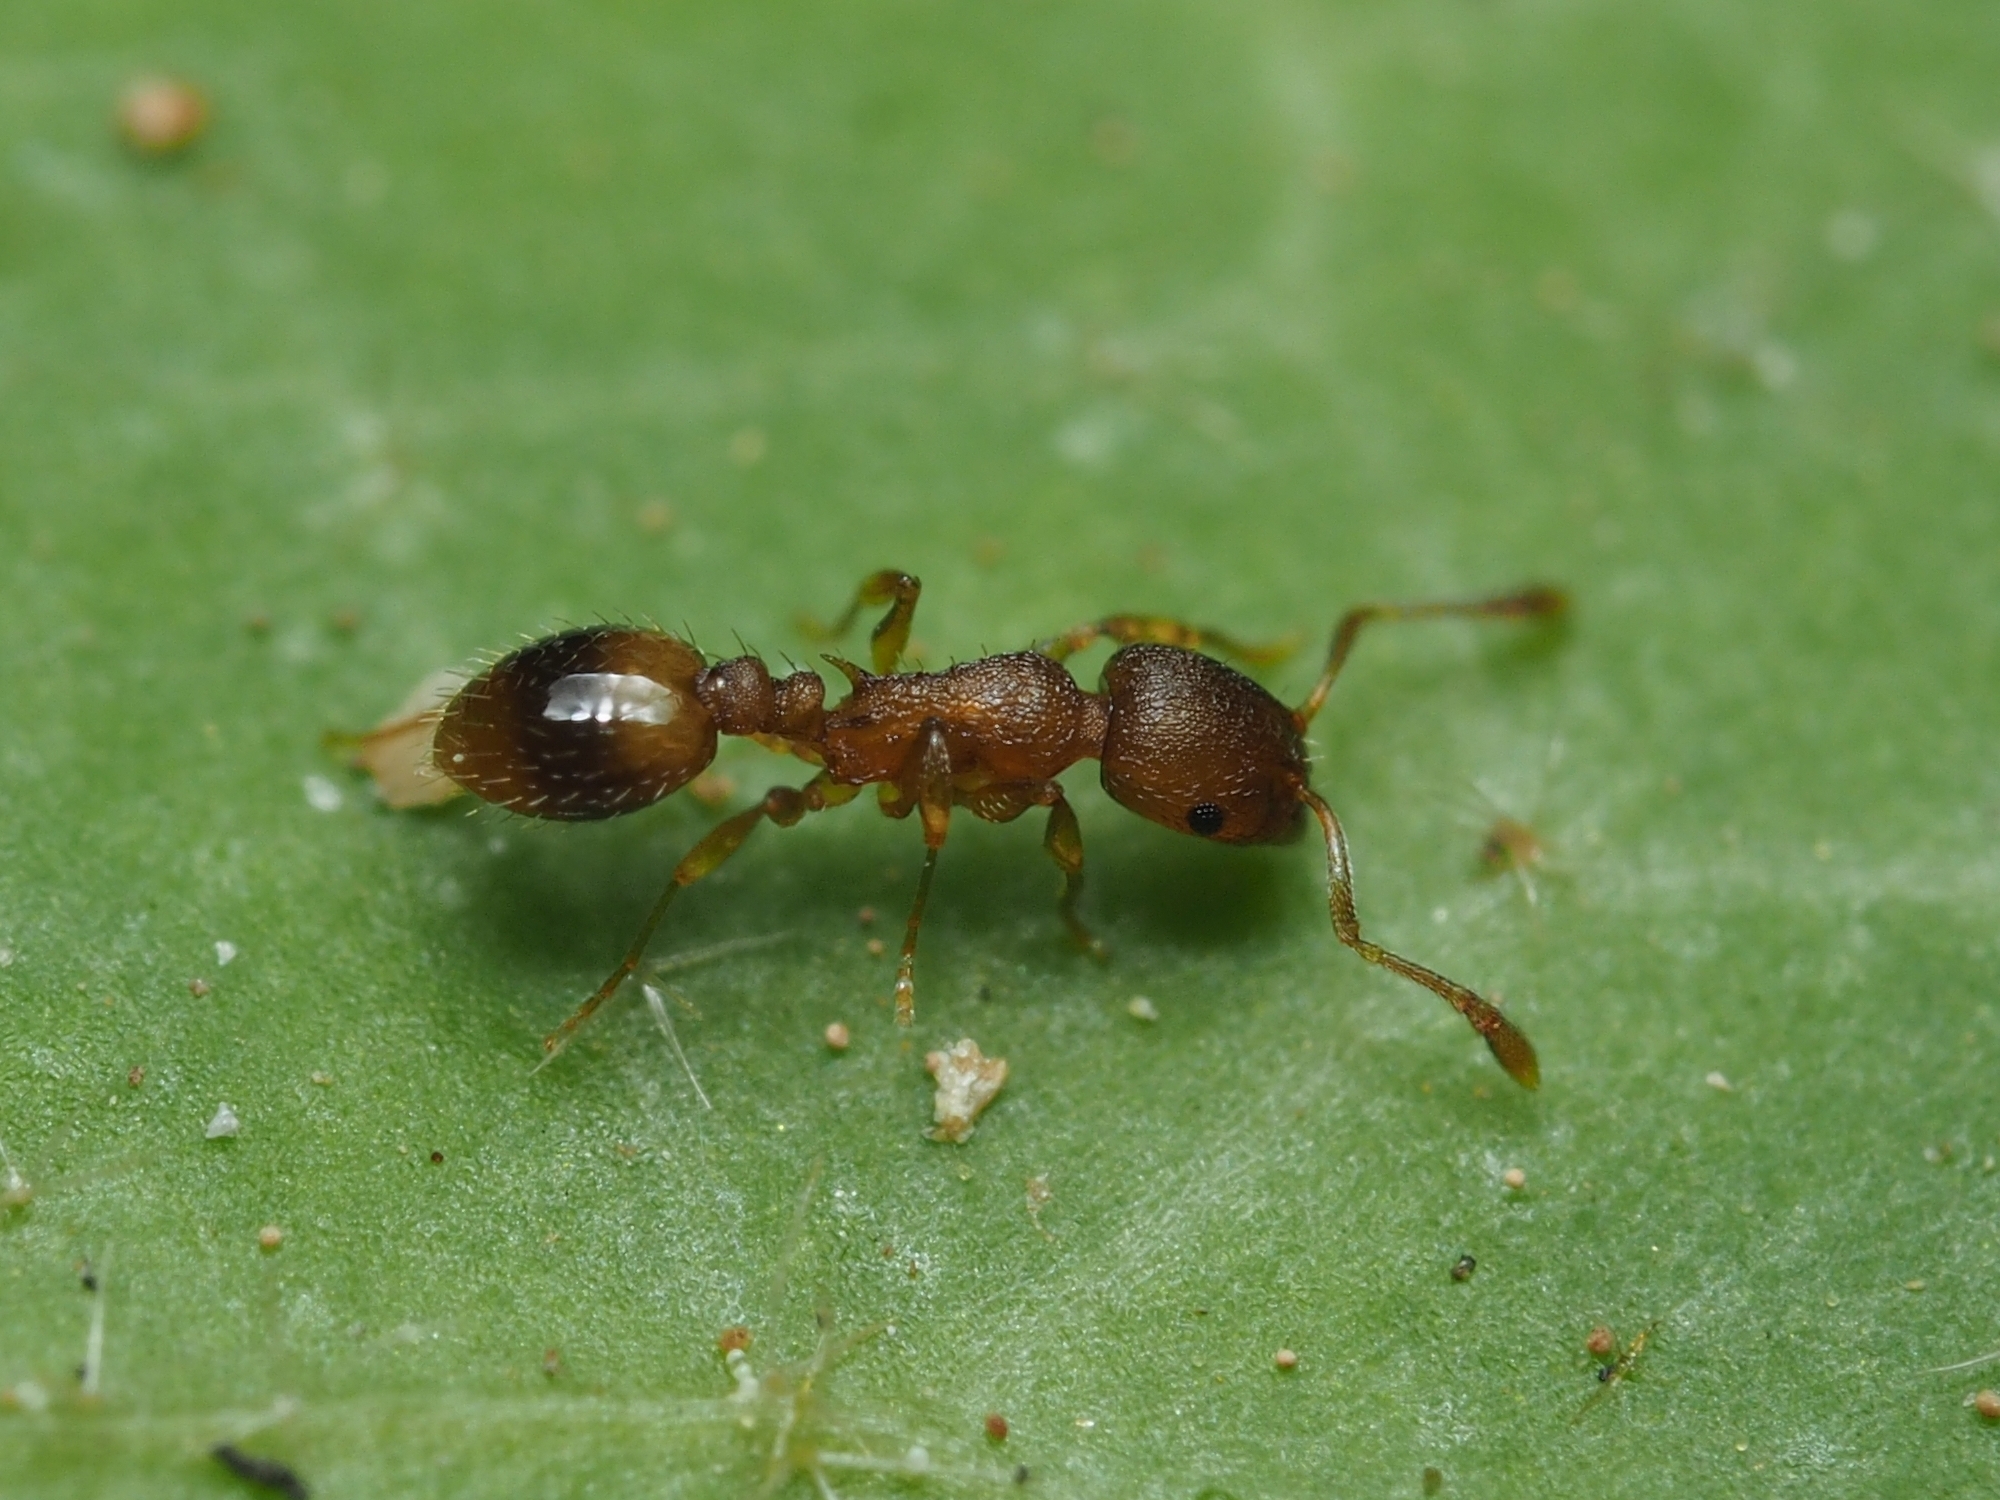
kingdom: Animalia
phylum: Arthropoda
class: Insecta
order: Hymenoptera
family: Formicidae
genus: Temnothorax
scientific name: Temnothorax lichtensteini
